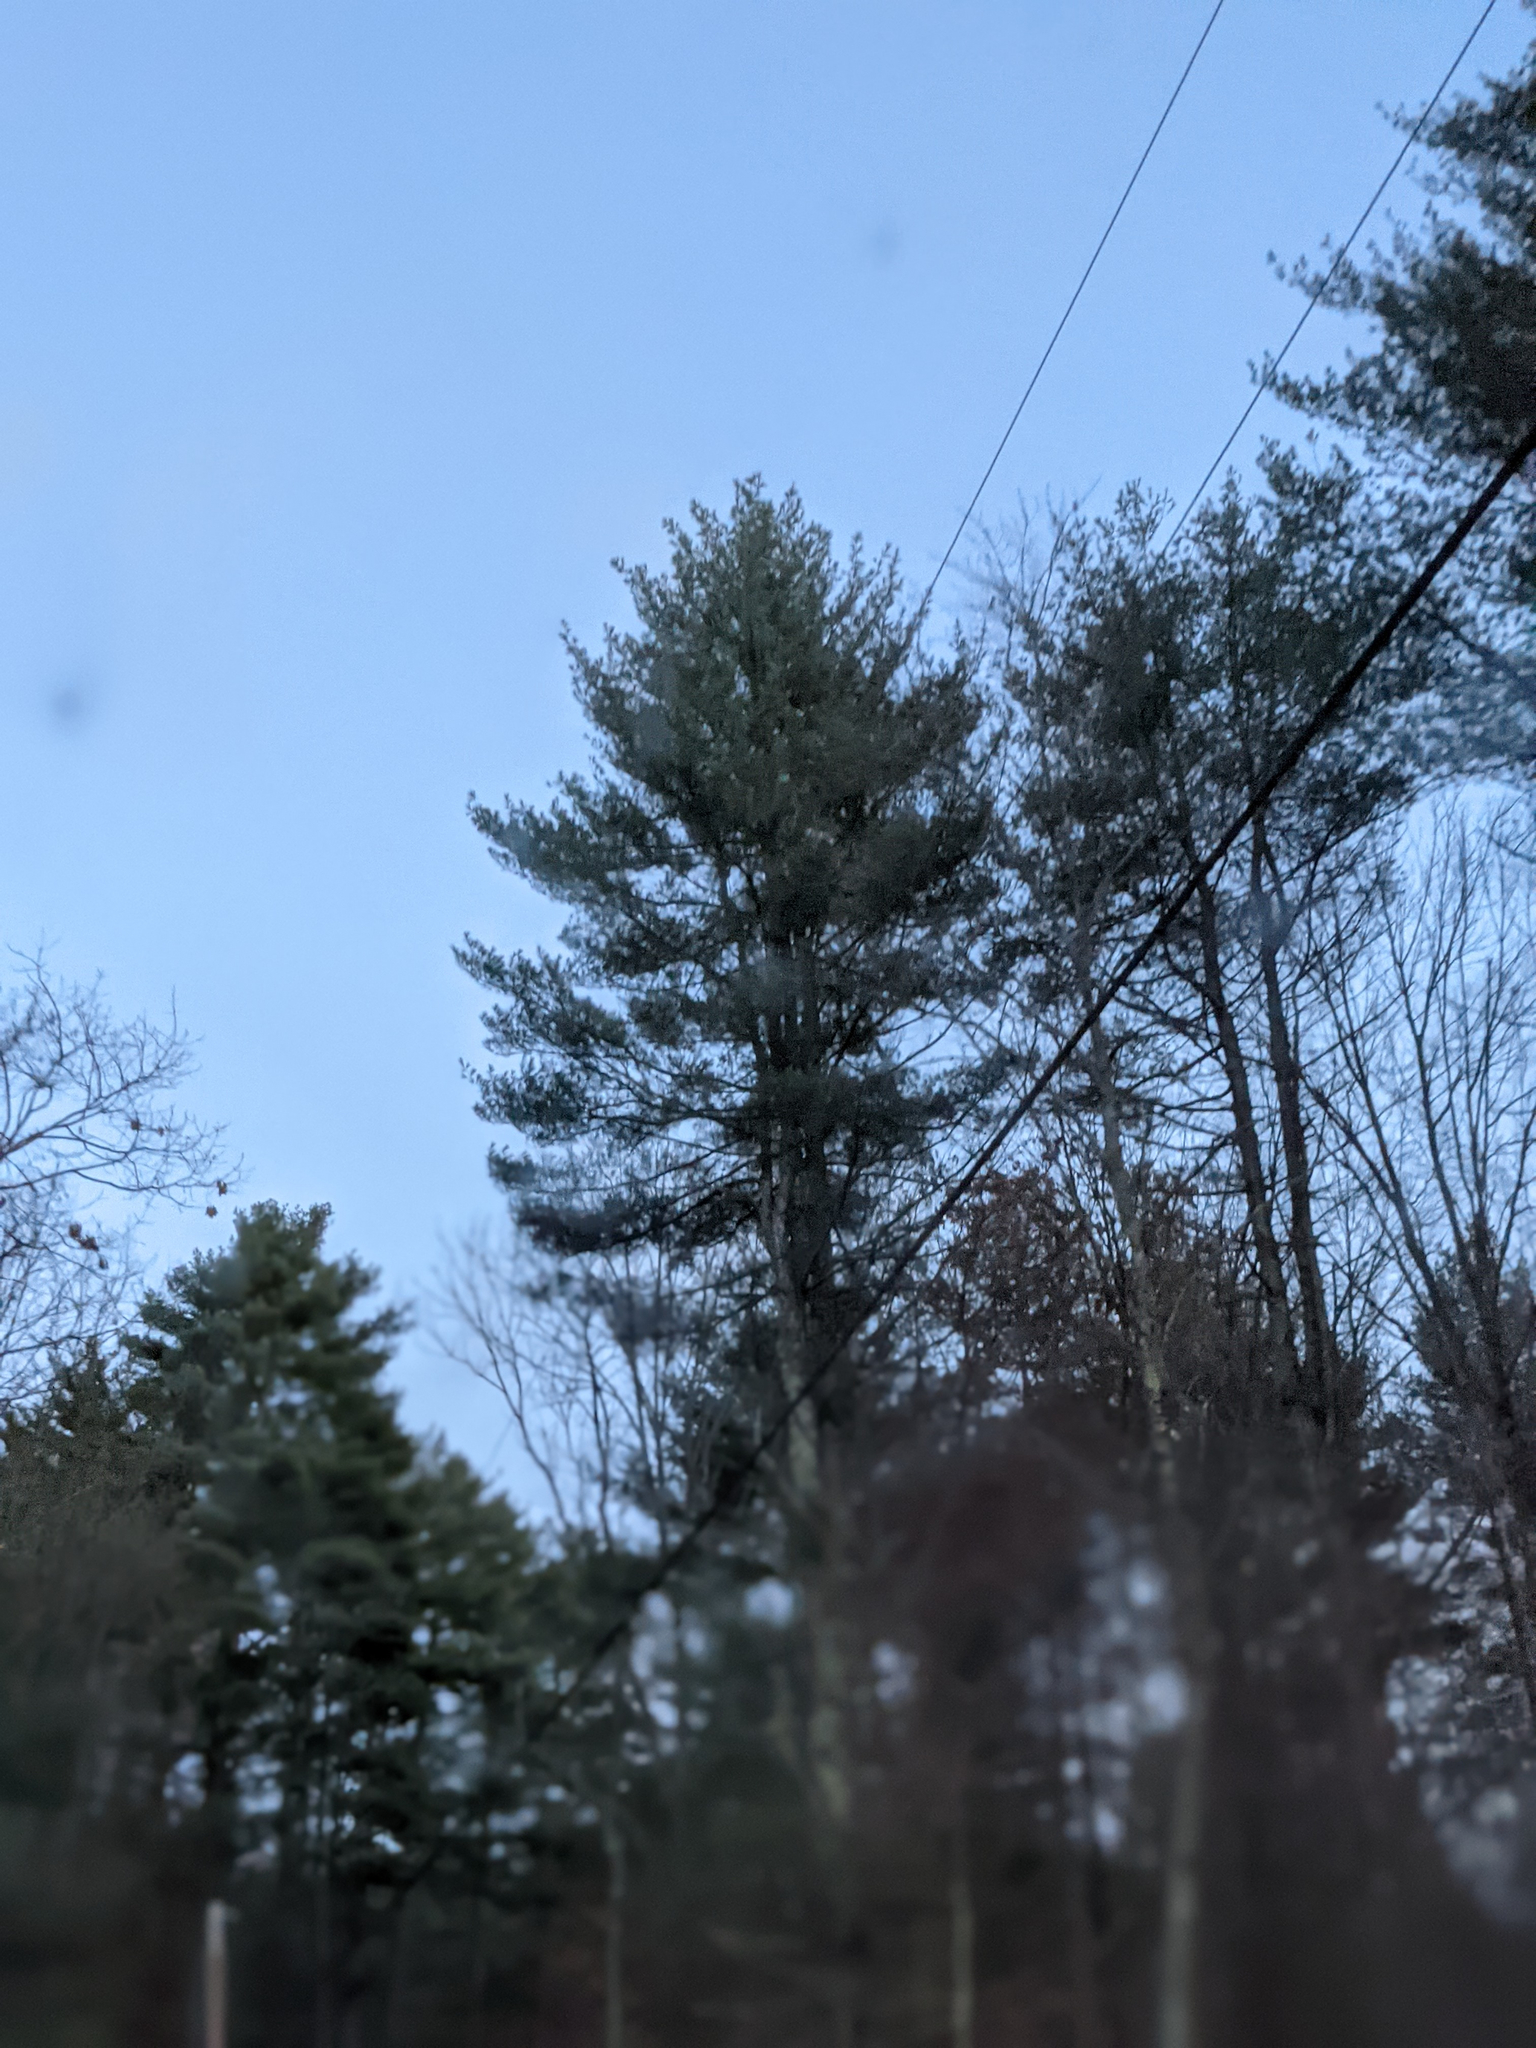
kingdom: Plantae
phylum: Tracheophyta
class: Pinopsida
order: Pinales
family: Pinaceae
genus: Pinus
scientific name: Pinus strobus
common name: Weymouth pine
